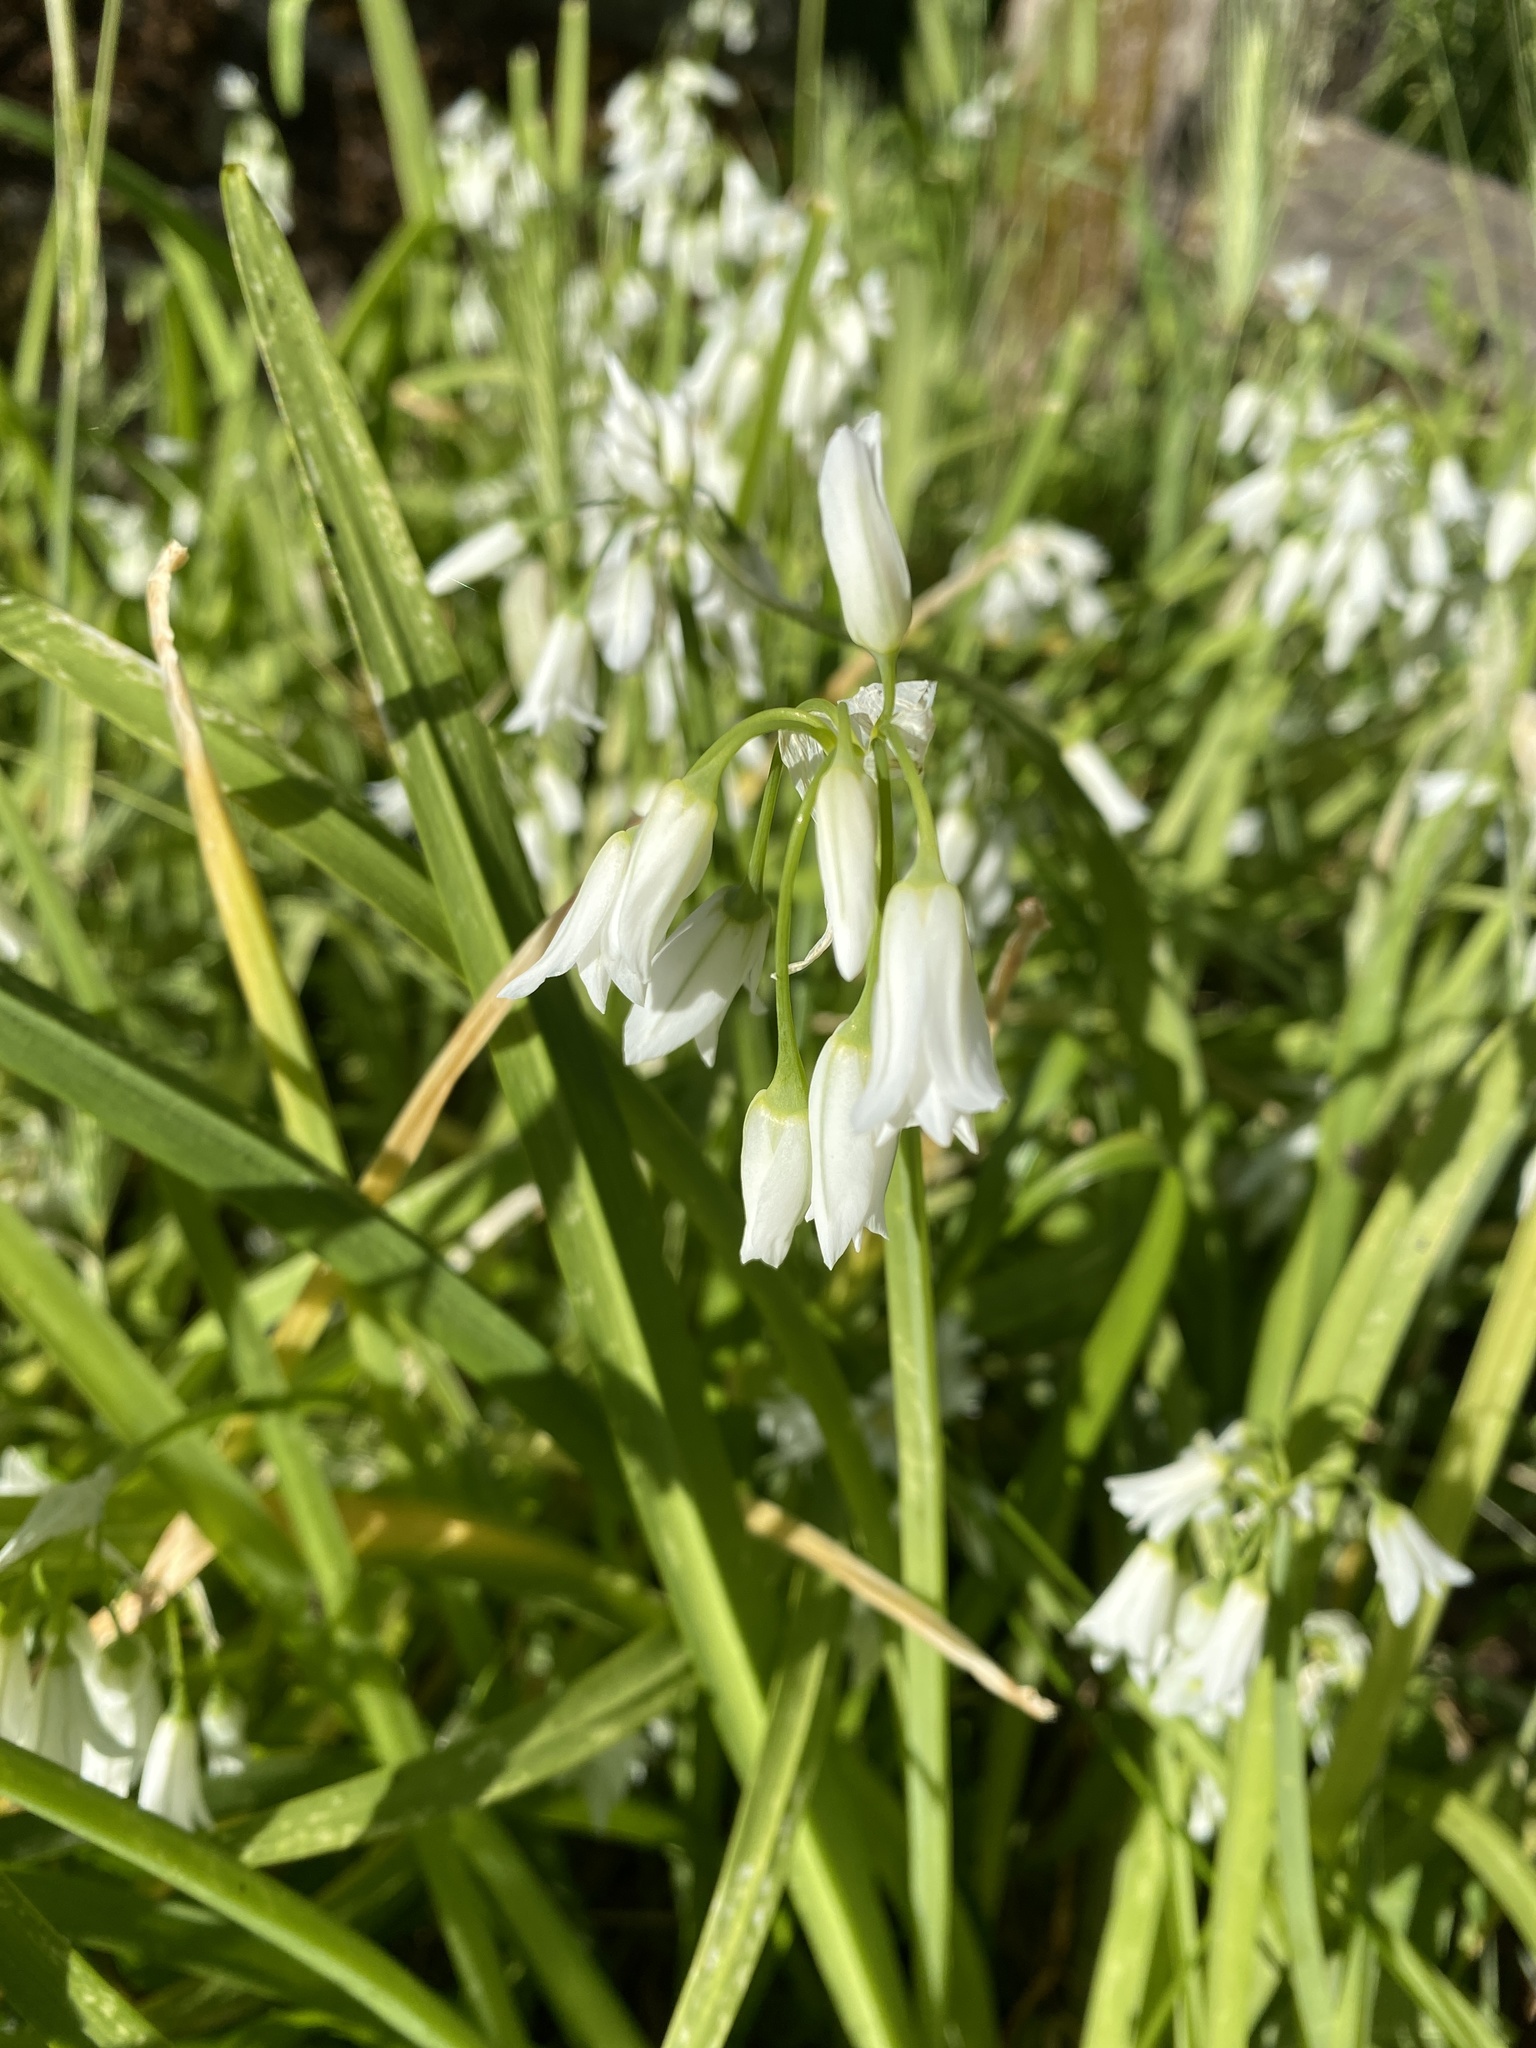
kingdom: Plantae
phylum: Tracheophyta
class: Liliopsida
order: Asparagales
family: Amaryllidaceae
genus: Allium
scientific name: Allium triquetrum
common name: Three-cornered garlic
